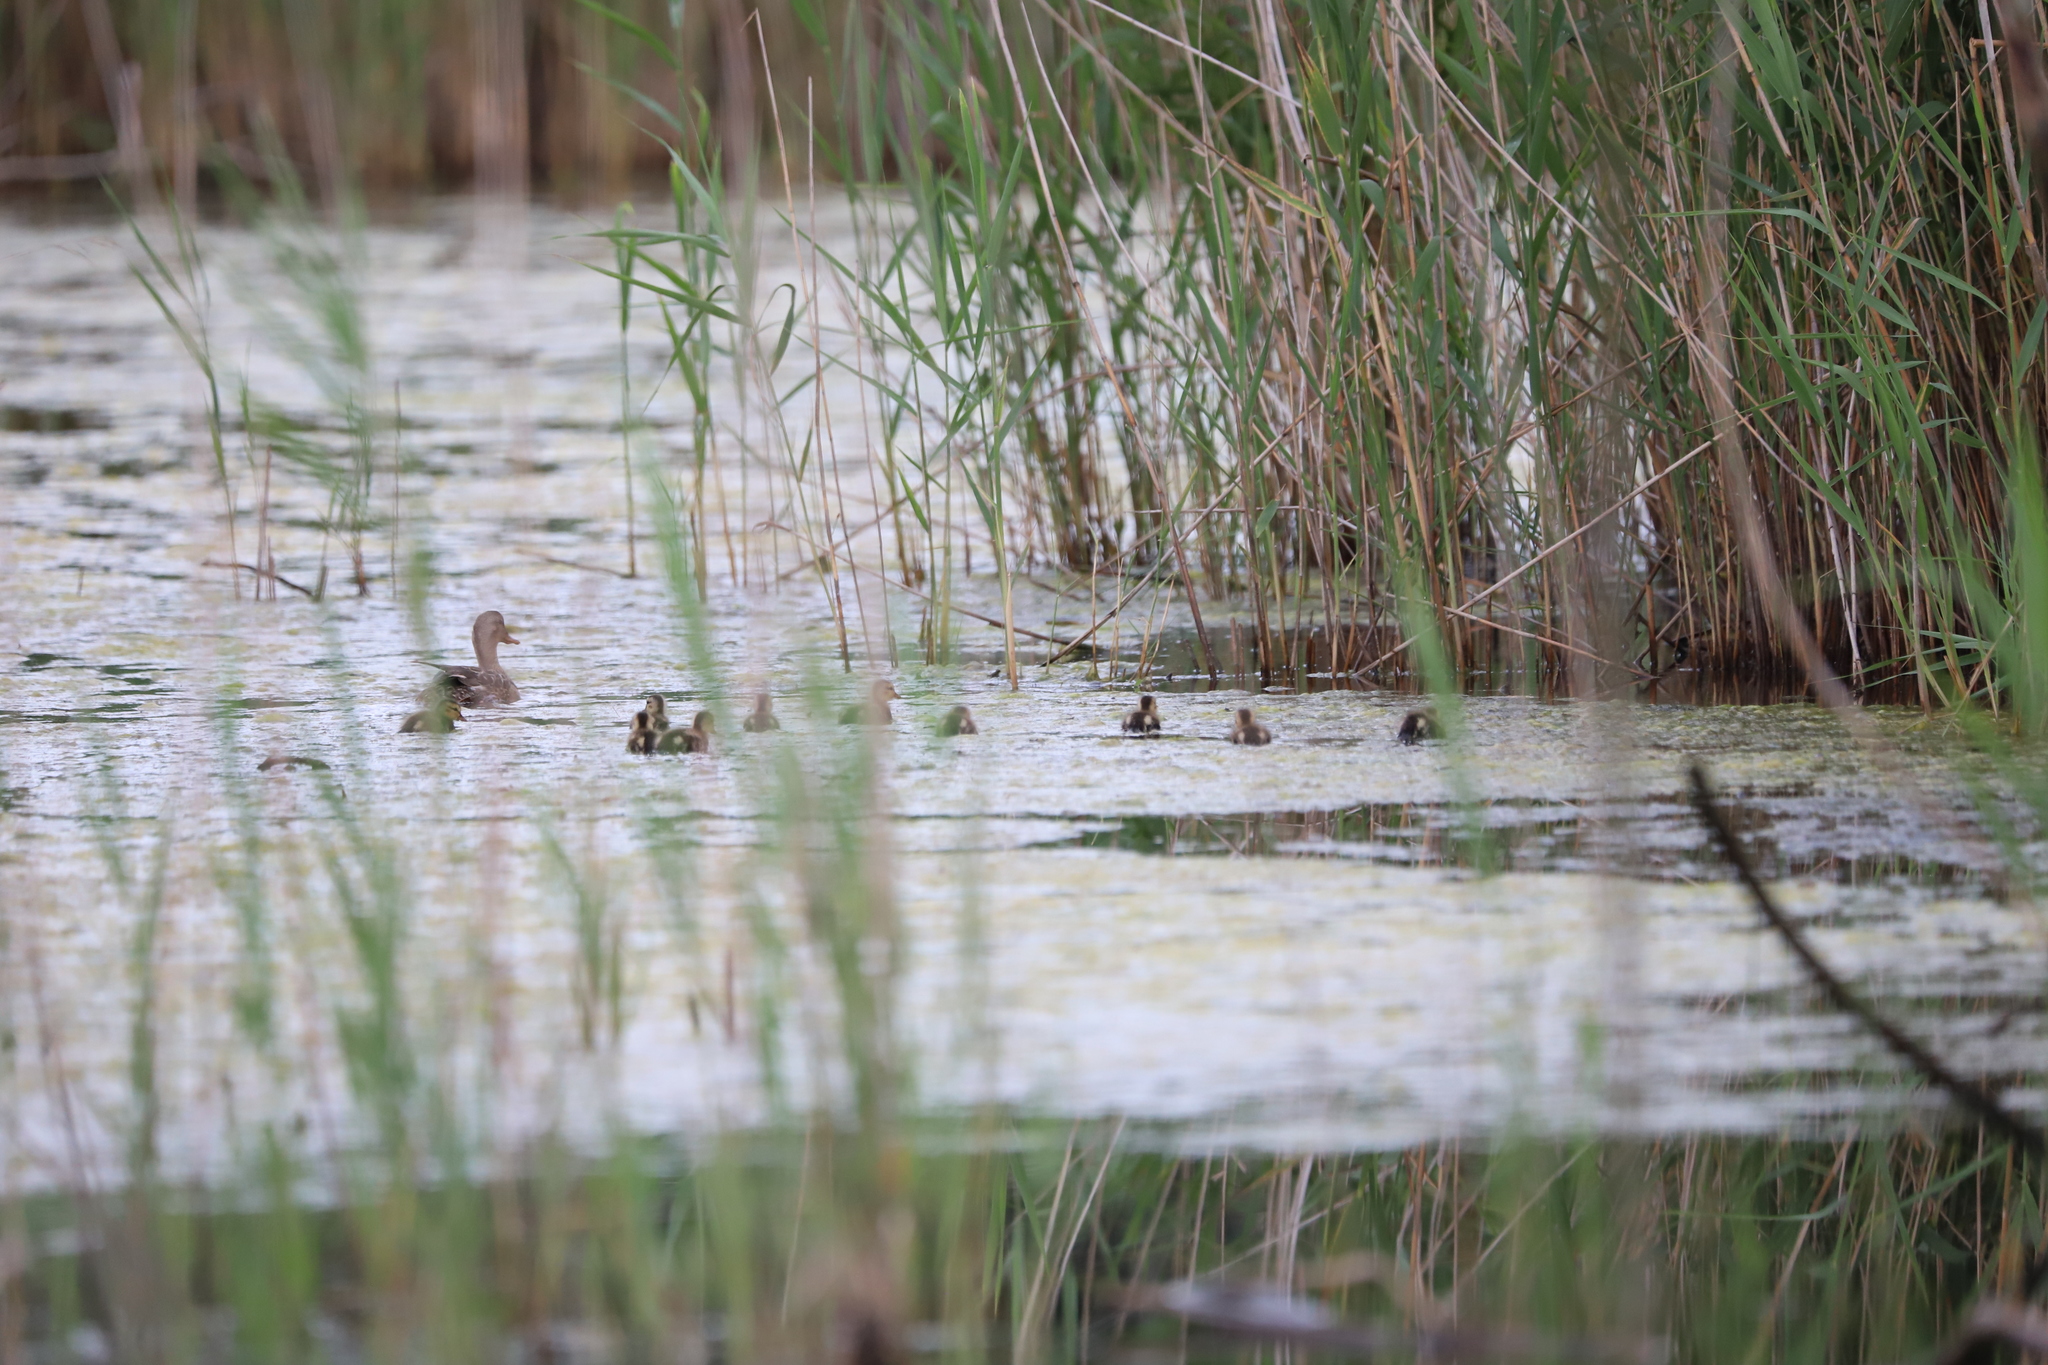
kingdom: Animalia
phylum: Chordata
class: Aves
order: Anseriformes
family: Anatidae
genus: Anas
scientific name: Anas platyrhynchos
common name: Mallard
